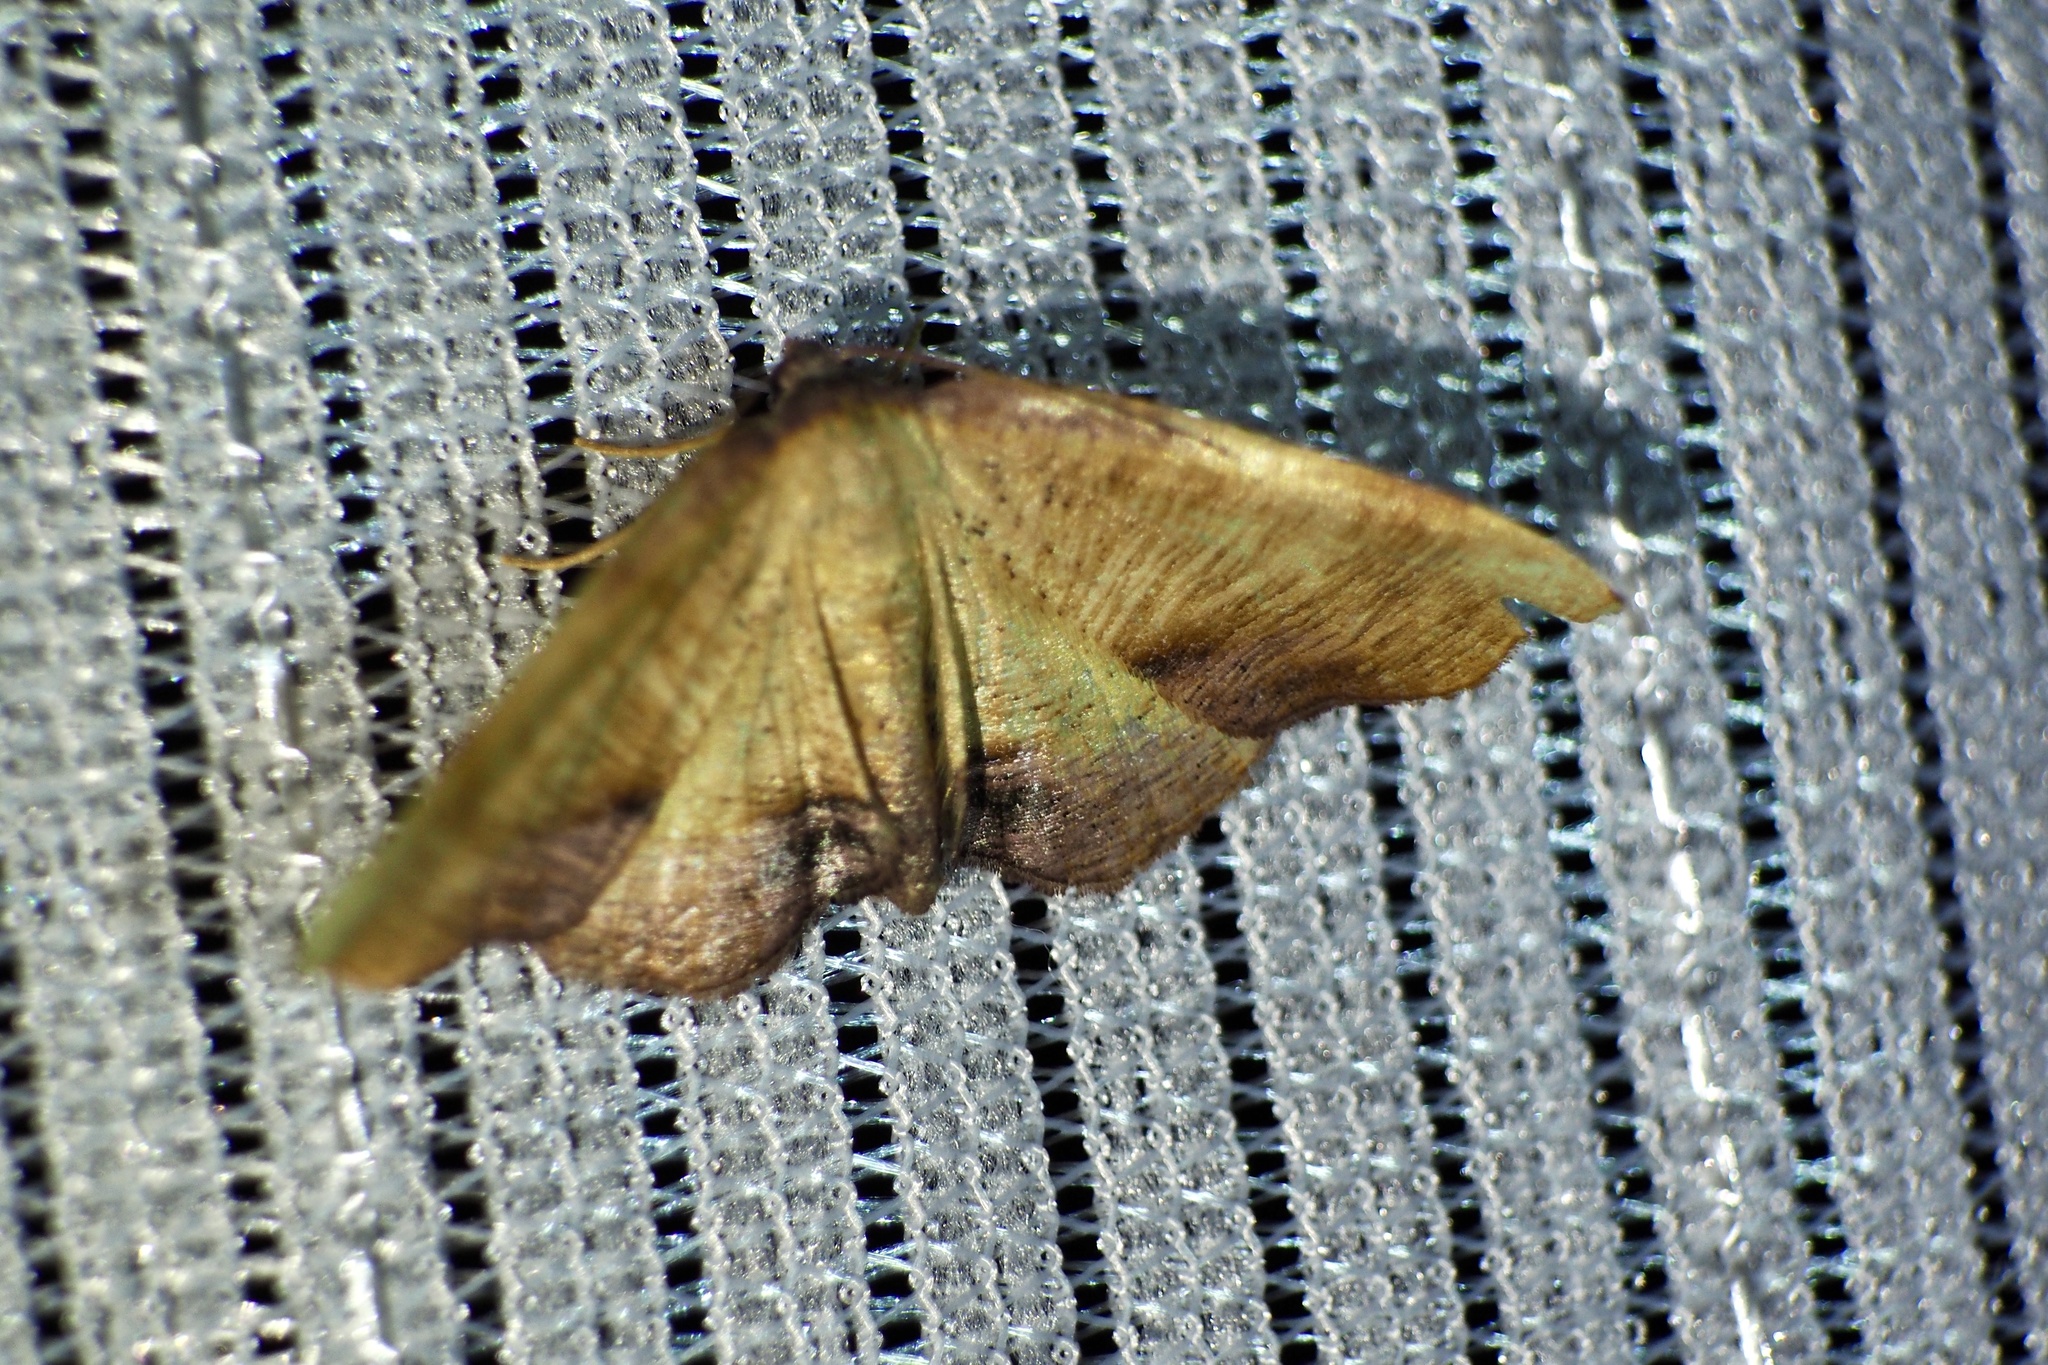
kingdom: Animalia
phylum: Arthropoda
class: Insecta
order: Lepidoptera
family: Geometridae
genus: Plagodis
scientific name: Plagodis dolabraria
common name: Scorched wing
